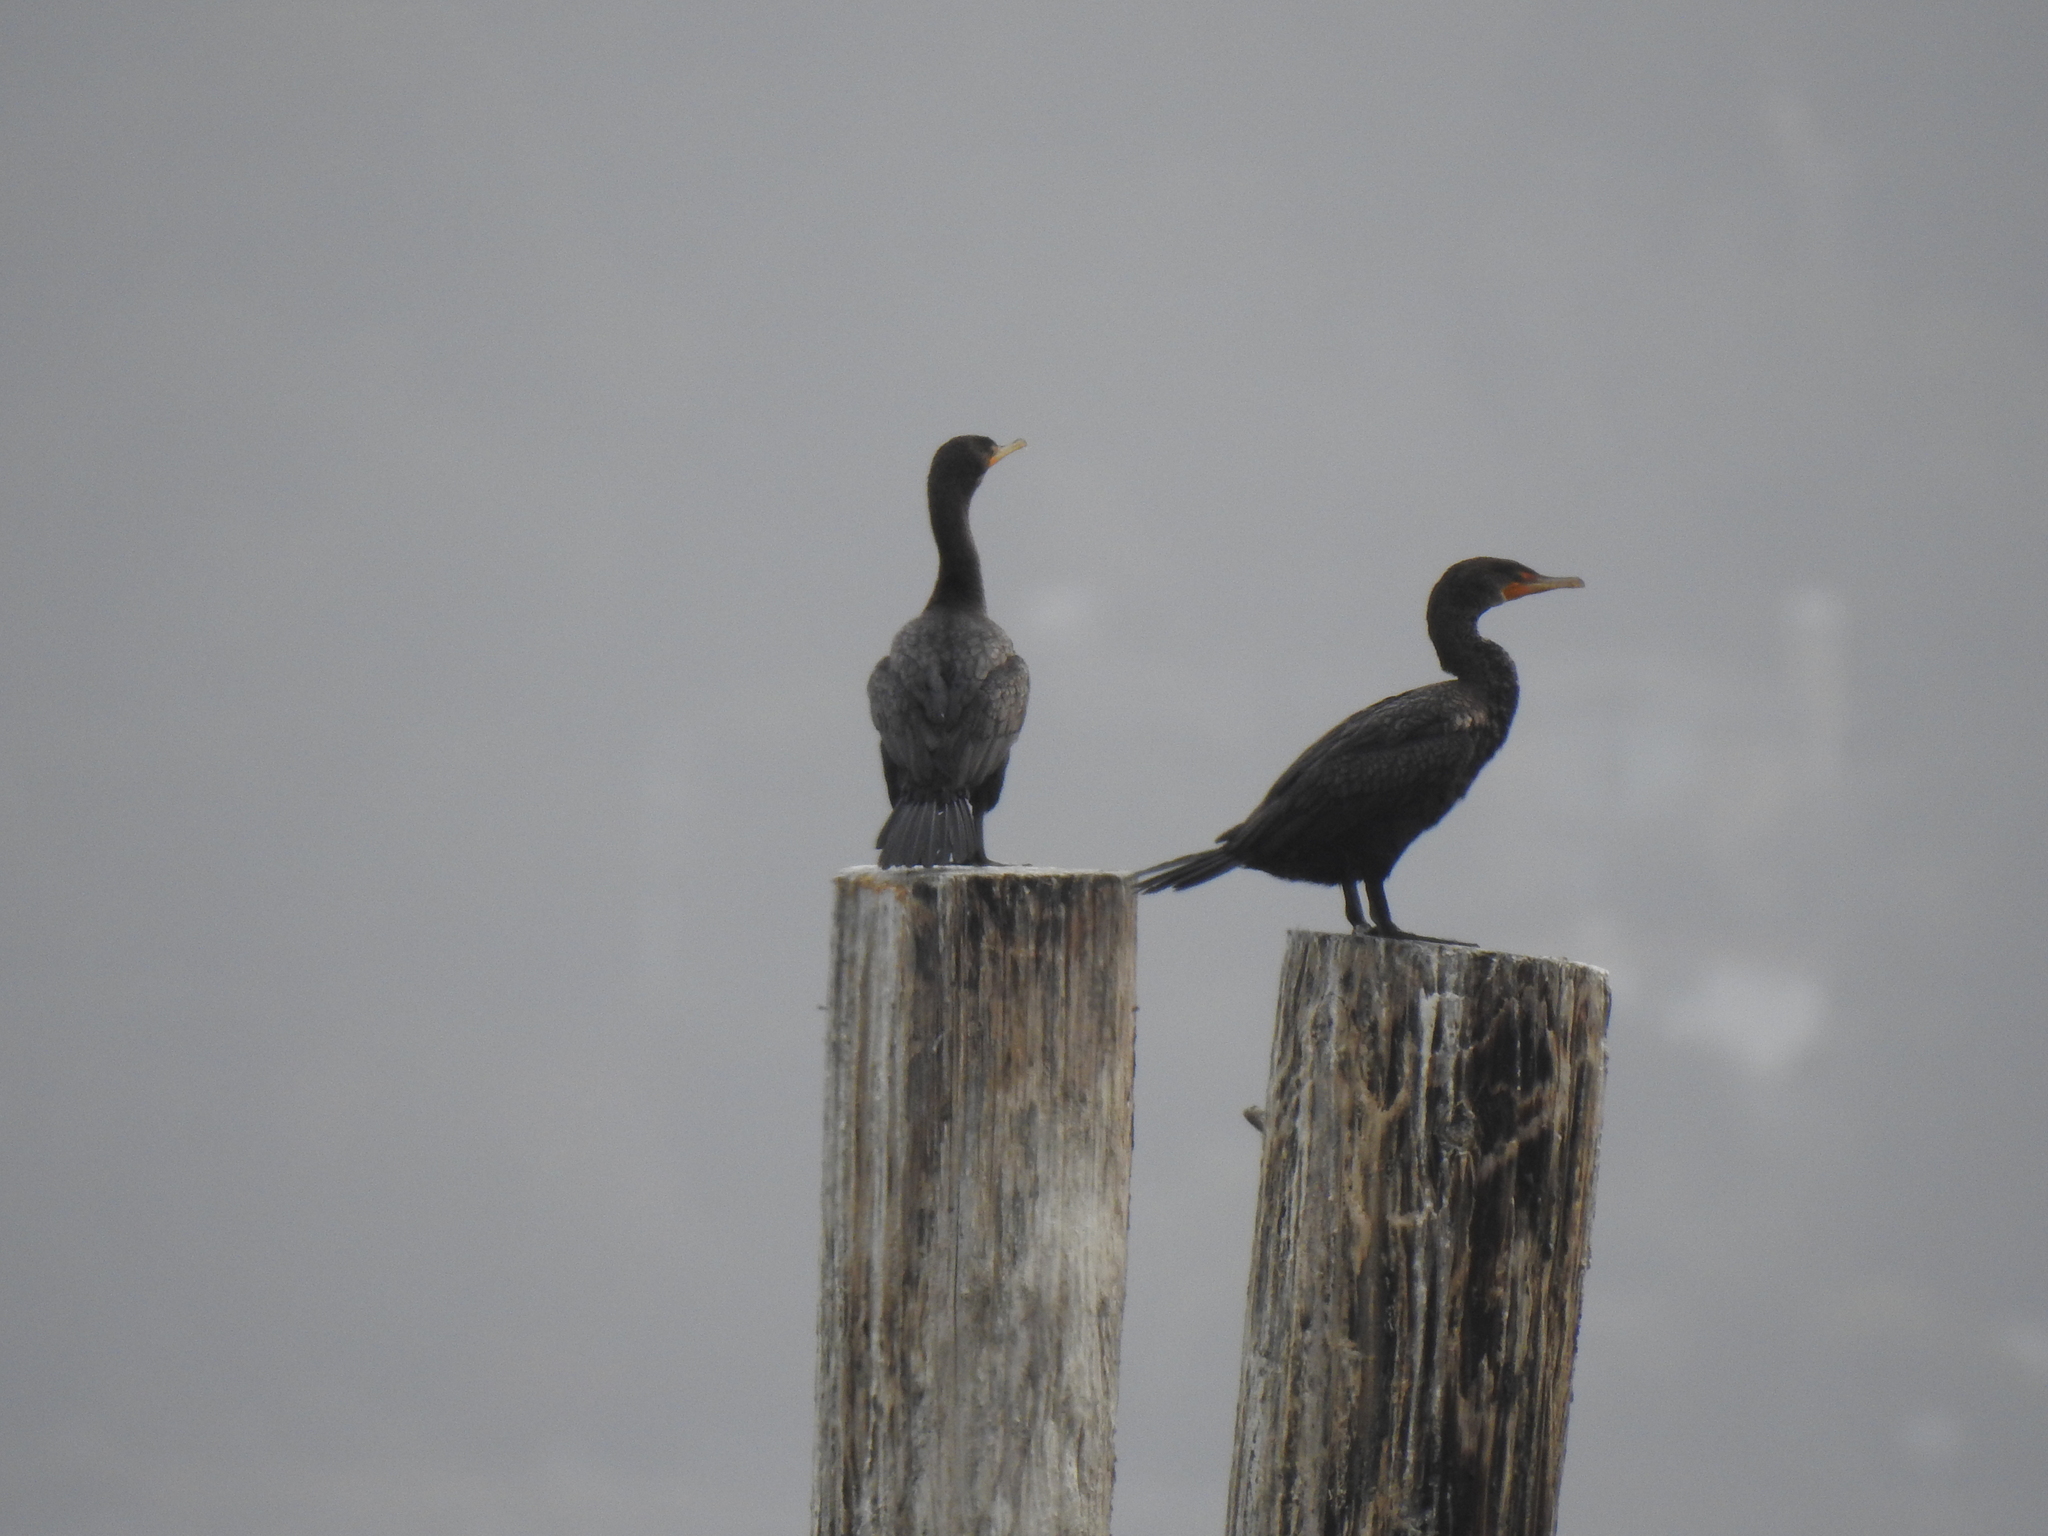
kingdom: Animalia
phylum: Chordata
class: Aves
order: Suliformes
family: Phalacrocoracidae
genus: Phalacrocorax
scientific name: Phalacrocorax auritus
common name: Double-crested cormorant
